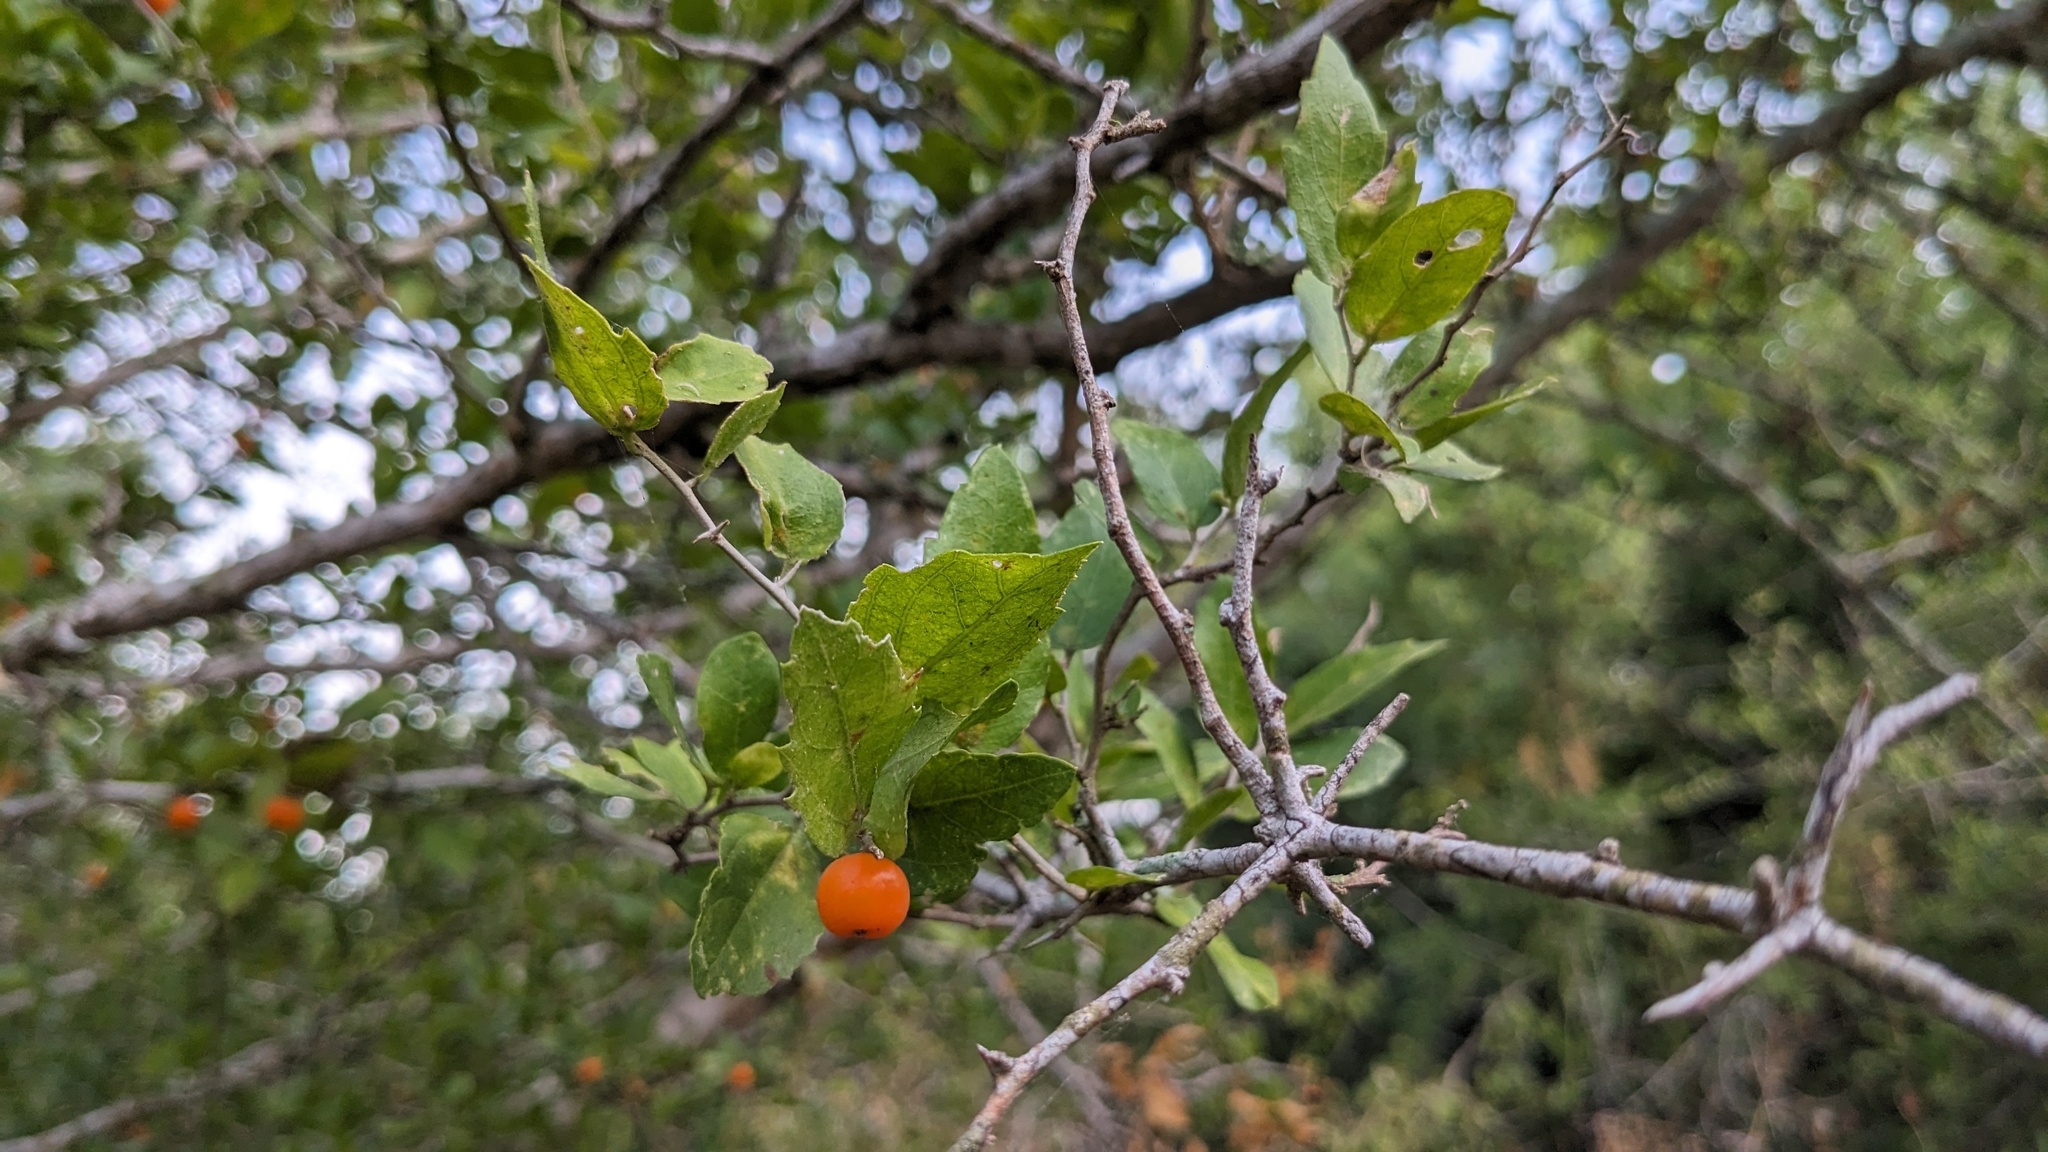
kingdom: Plantae
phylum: Tracheophyta
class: Magnoliopsida
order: Rosales
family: Cannabaceae
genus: Celtis
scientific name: Celtis pallida
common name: Desert hackberry
